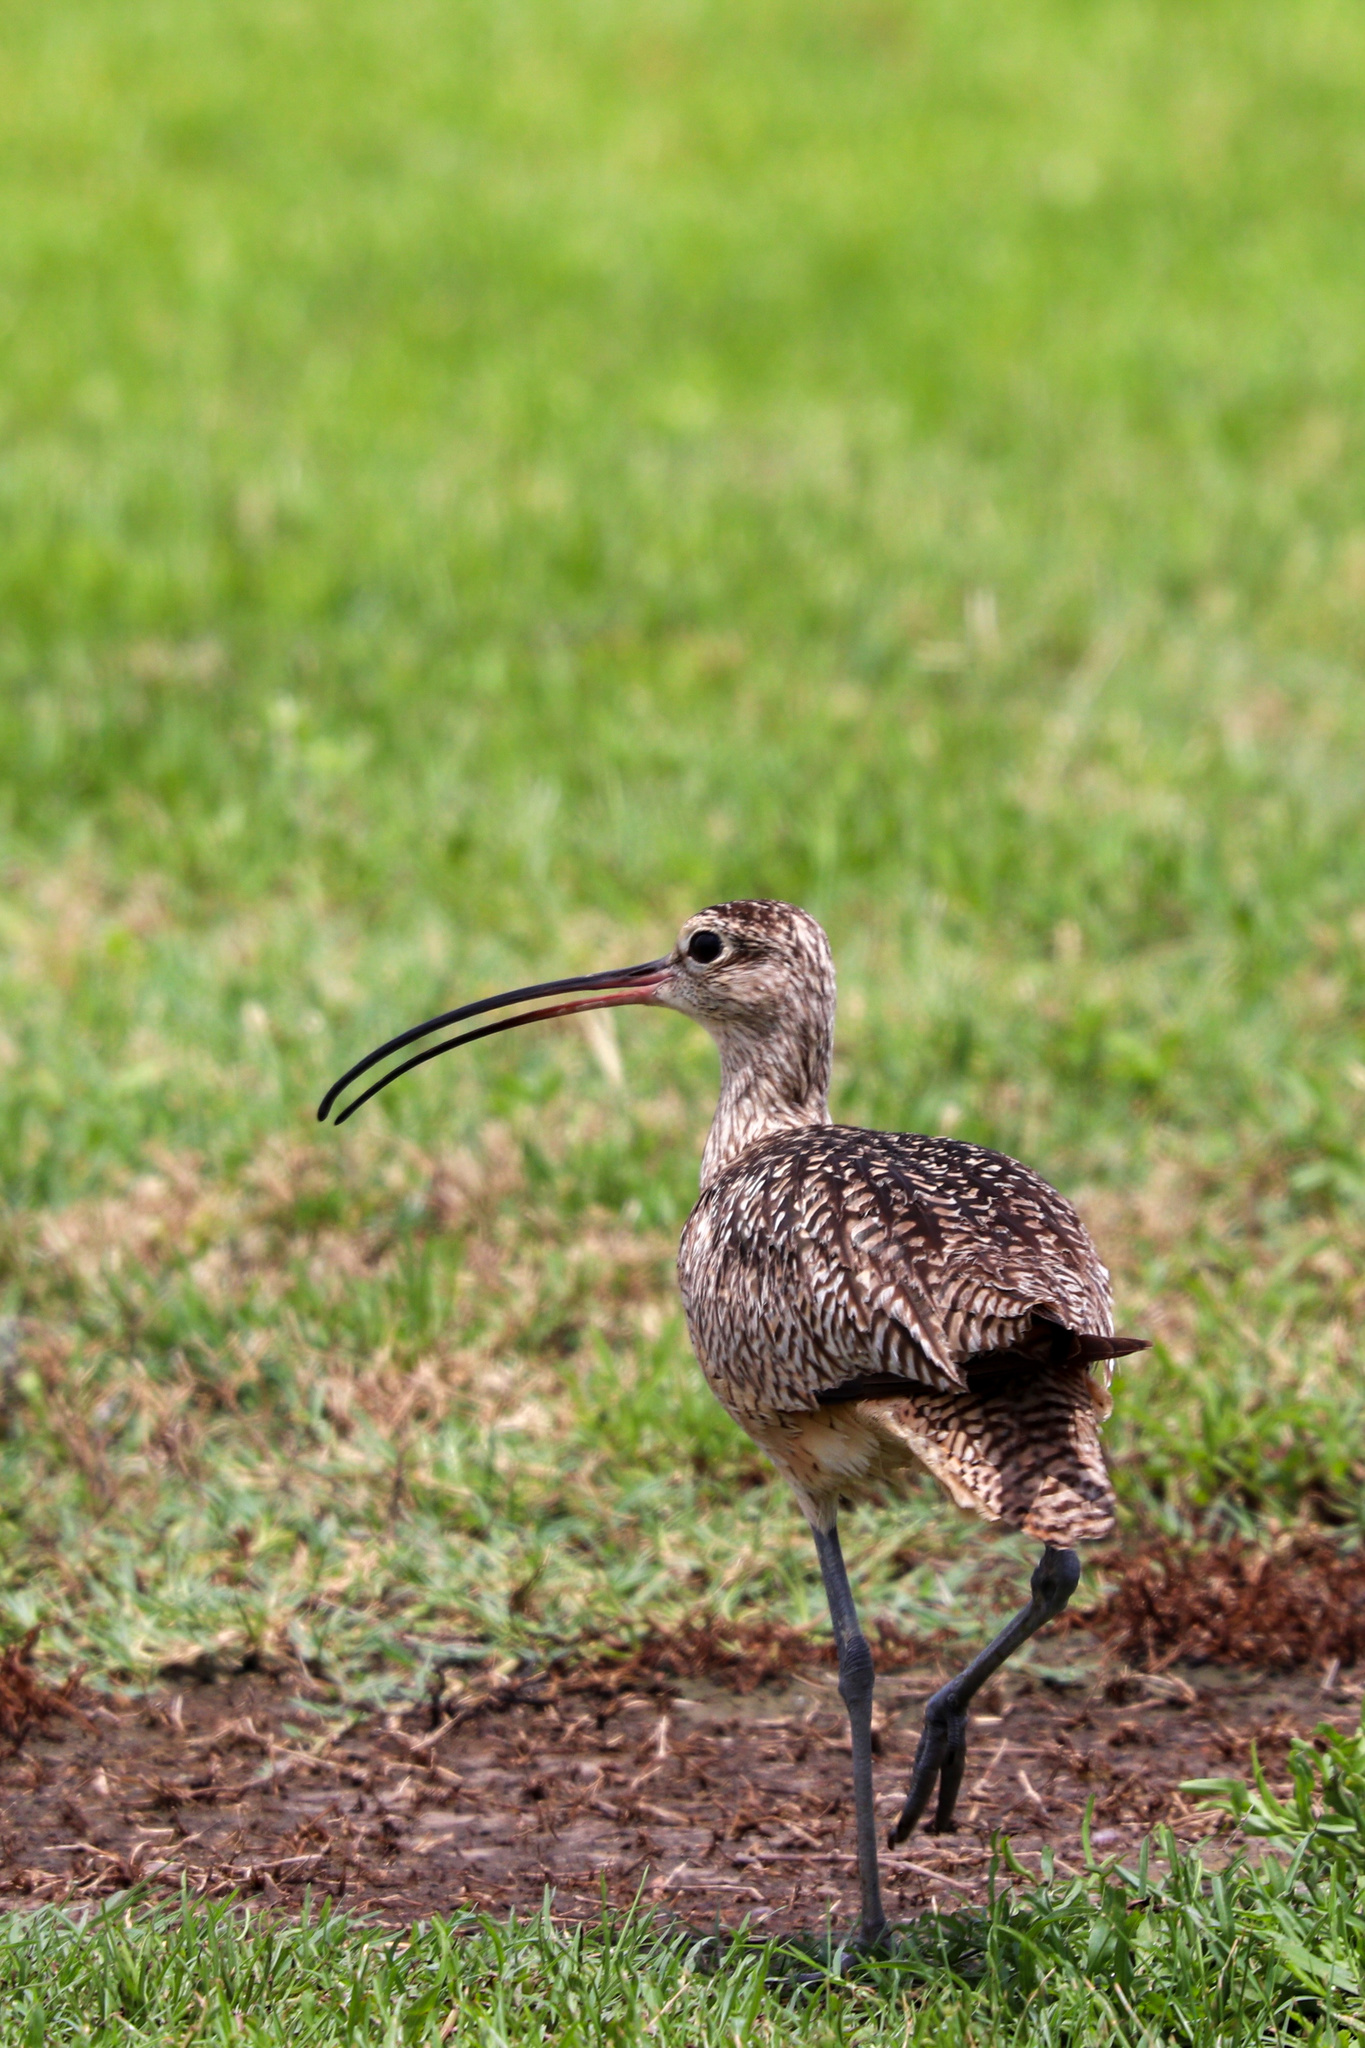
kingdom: Animalia
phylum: Chordata
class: Aves
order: Charadriiformes
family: Scolopacidae
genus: Numenius
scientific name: Numenius americanus
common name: Long-billed curlew
